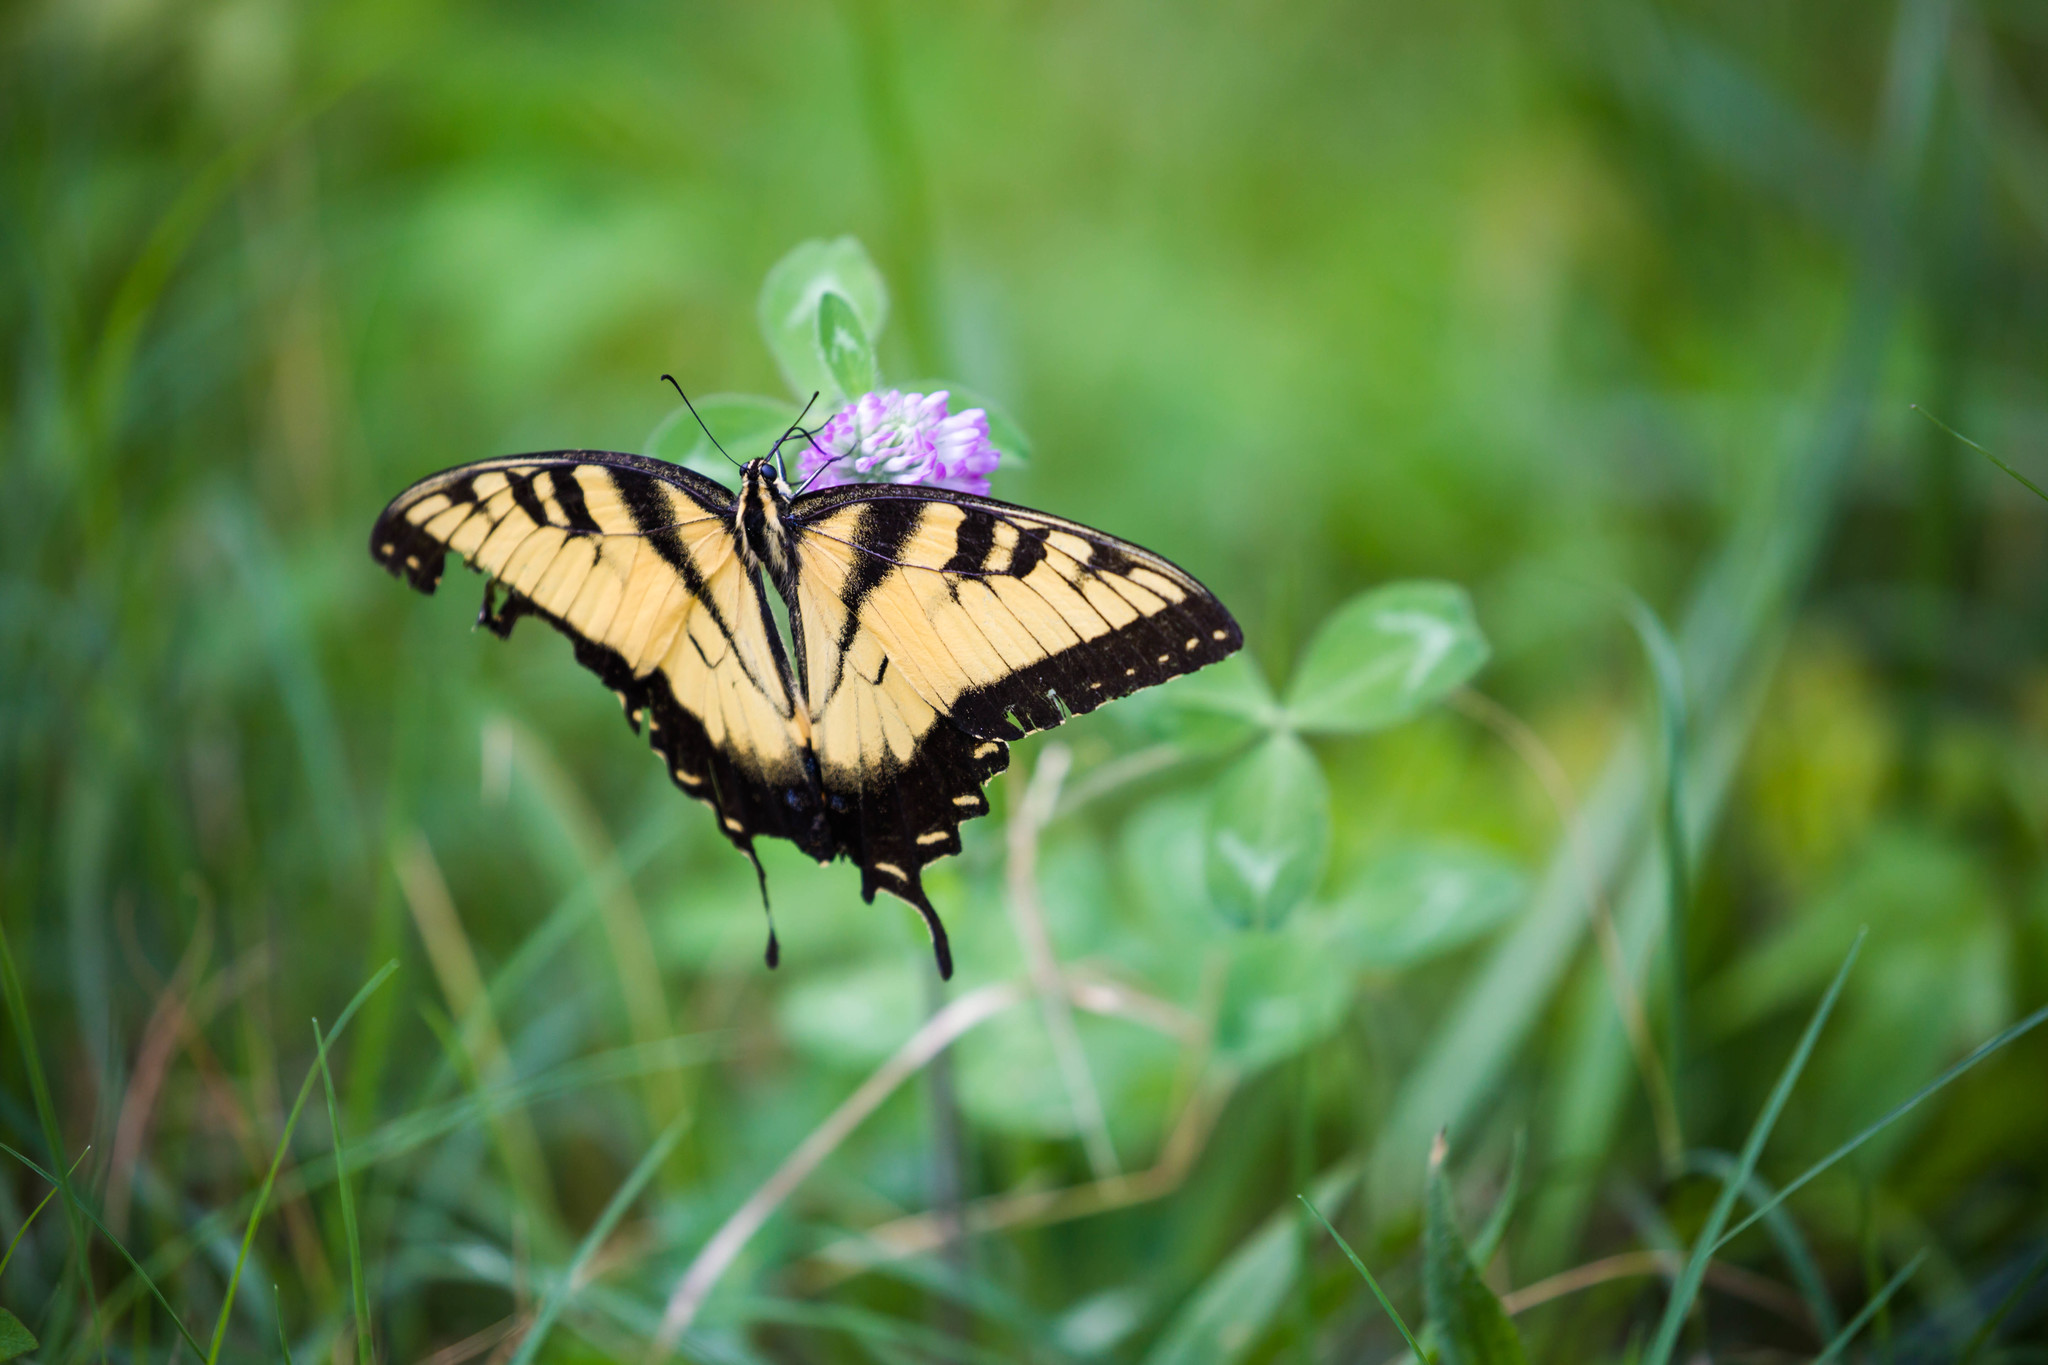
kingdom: Animalia
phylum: Arthropoda
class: Insecta
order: Lepidoptera
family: Papilionidae
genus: Papilio
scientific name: Papilio glaucus
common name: Tiger swallowtail
